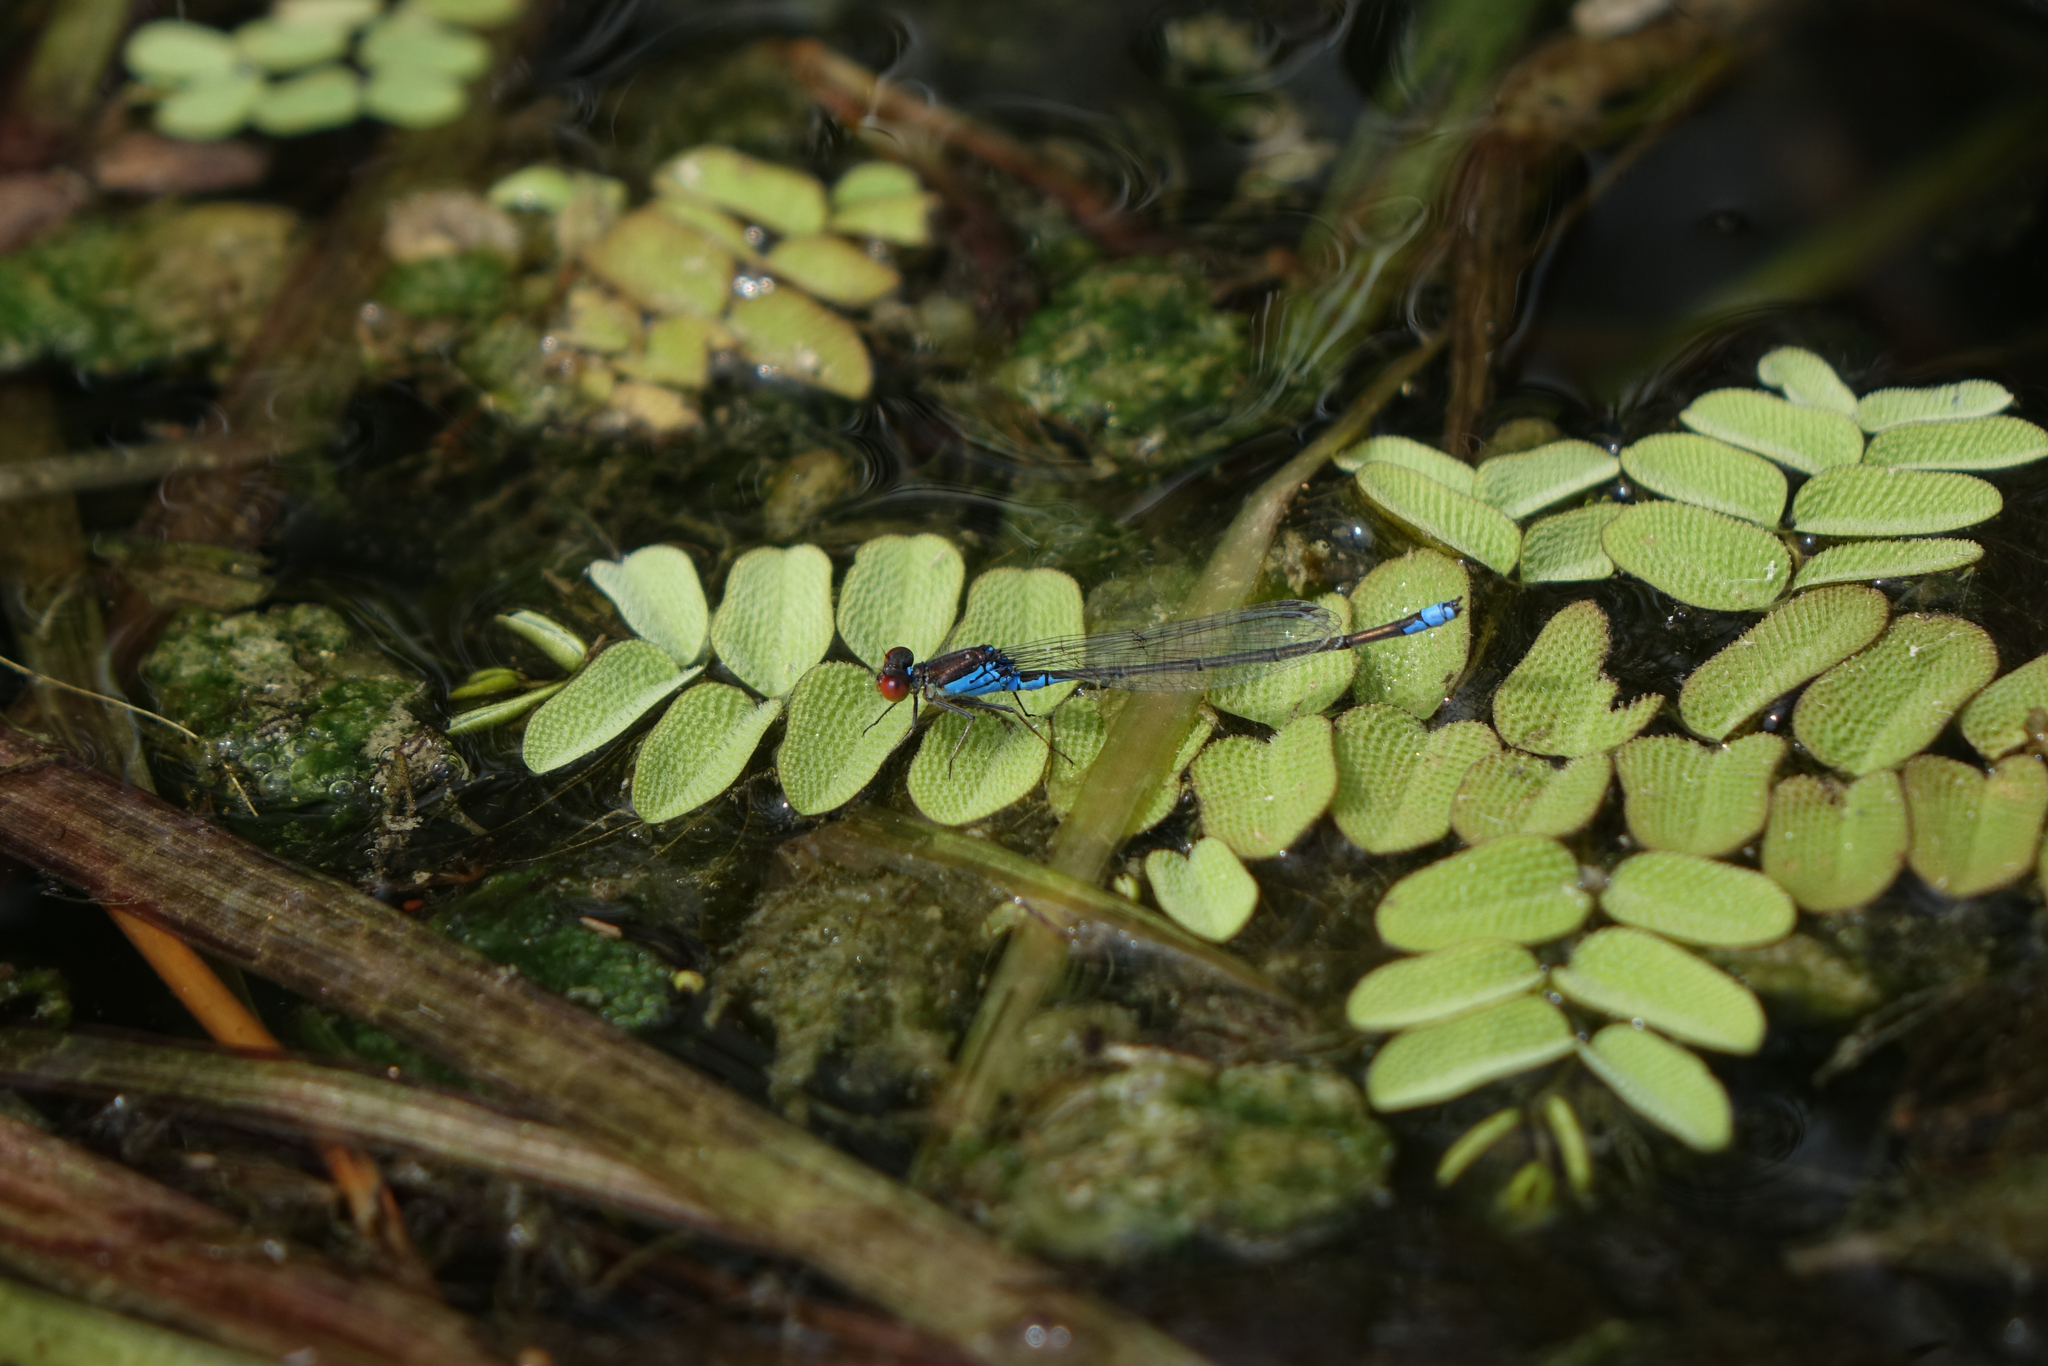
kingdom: Plantae
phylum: Tracheophyta
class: Polypodiopsida
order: Salviniales
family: Salviniaceae
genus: Salvinia
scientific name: Salvinia natans
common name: Floating fern
